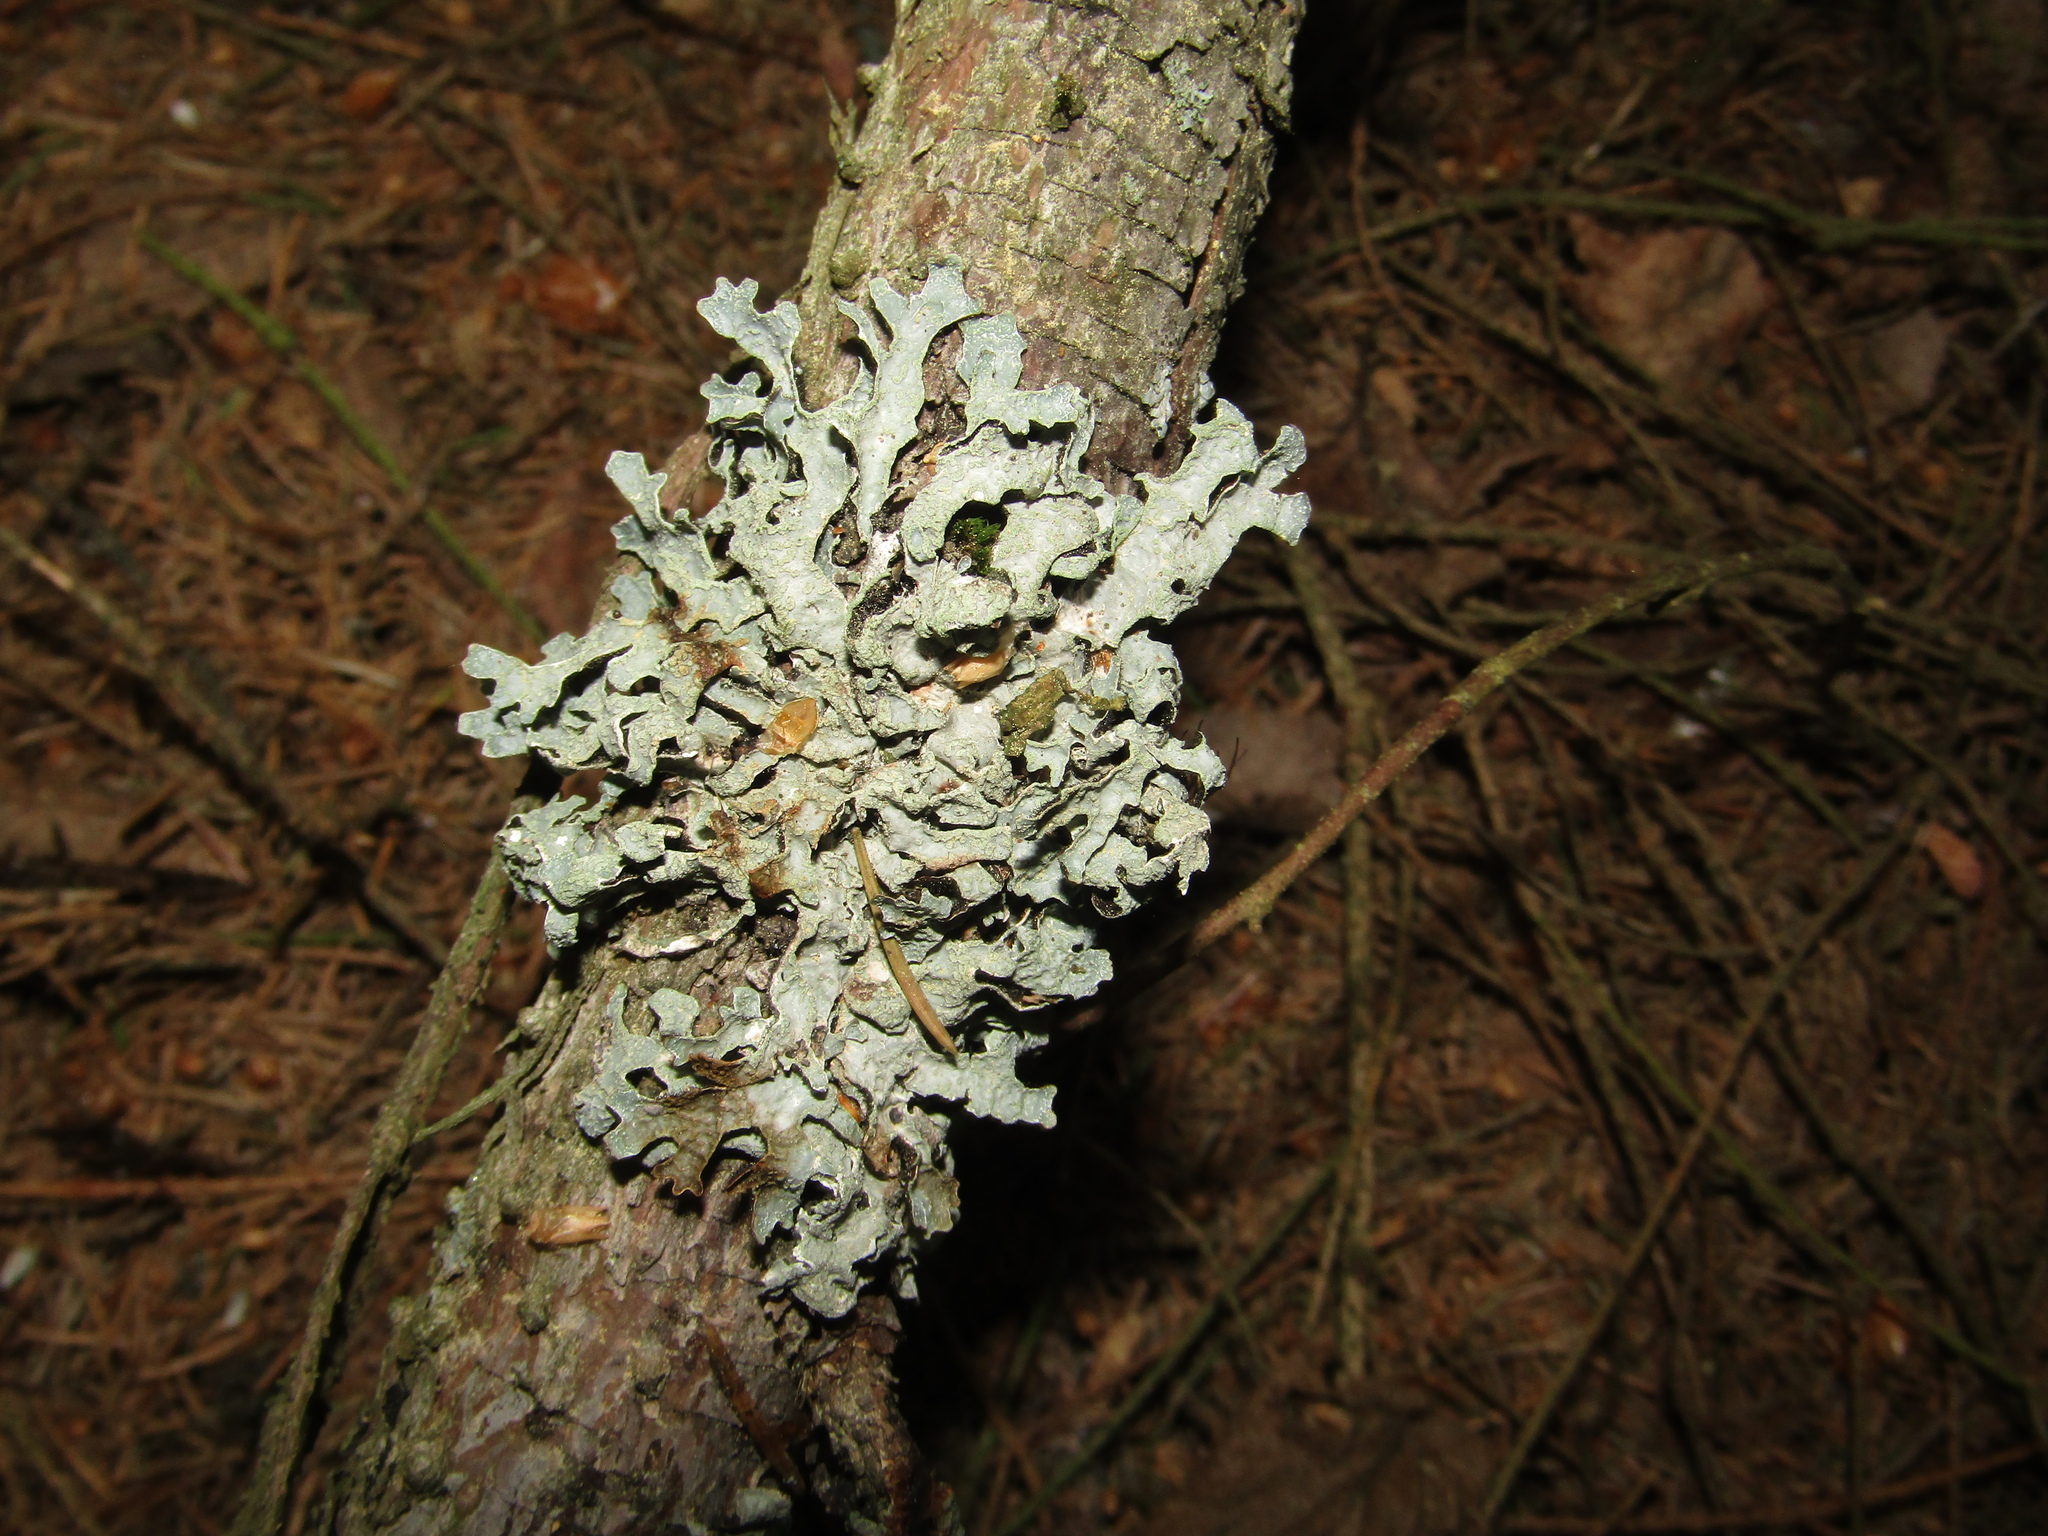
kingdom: Fungi
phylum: Ascomycota
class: Lecanoromycetes
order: Lecanorales
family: Parmeliaceae
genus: Parmelia
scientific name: Parmelia sulcata
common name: Netted shield lichen
